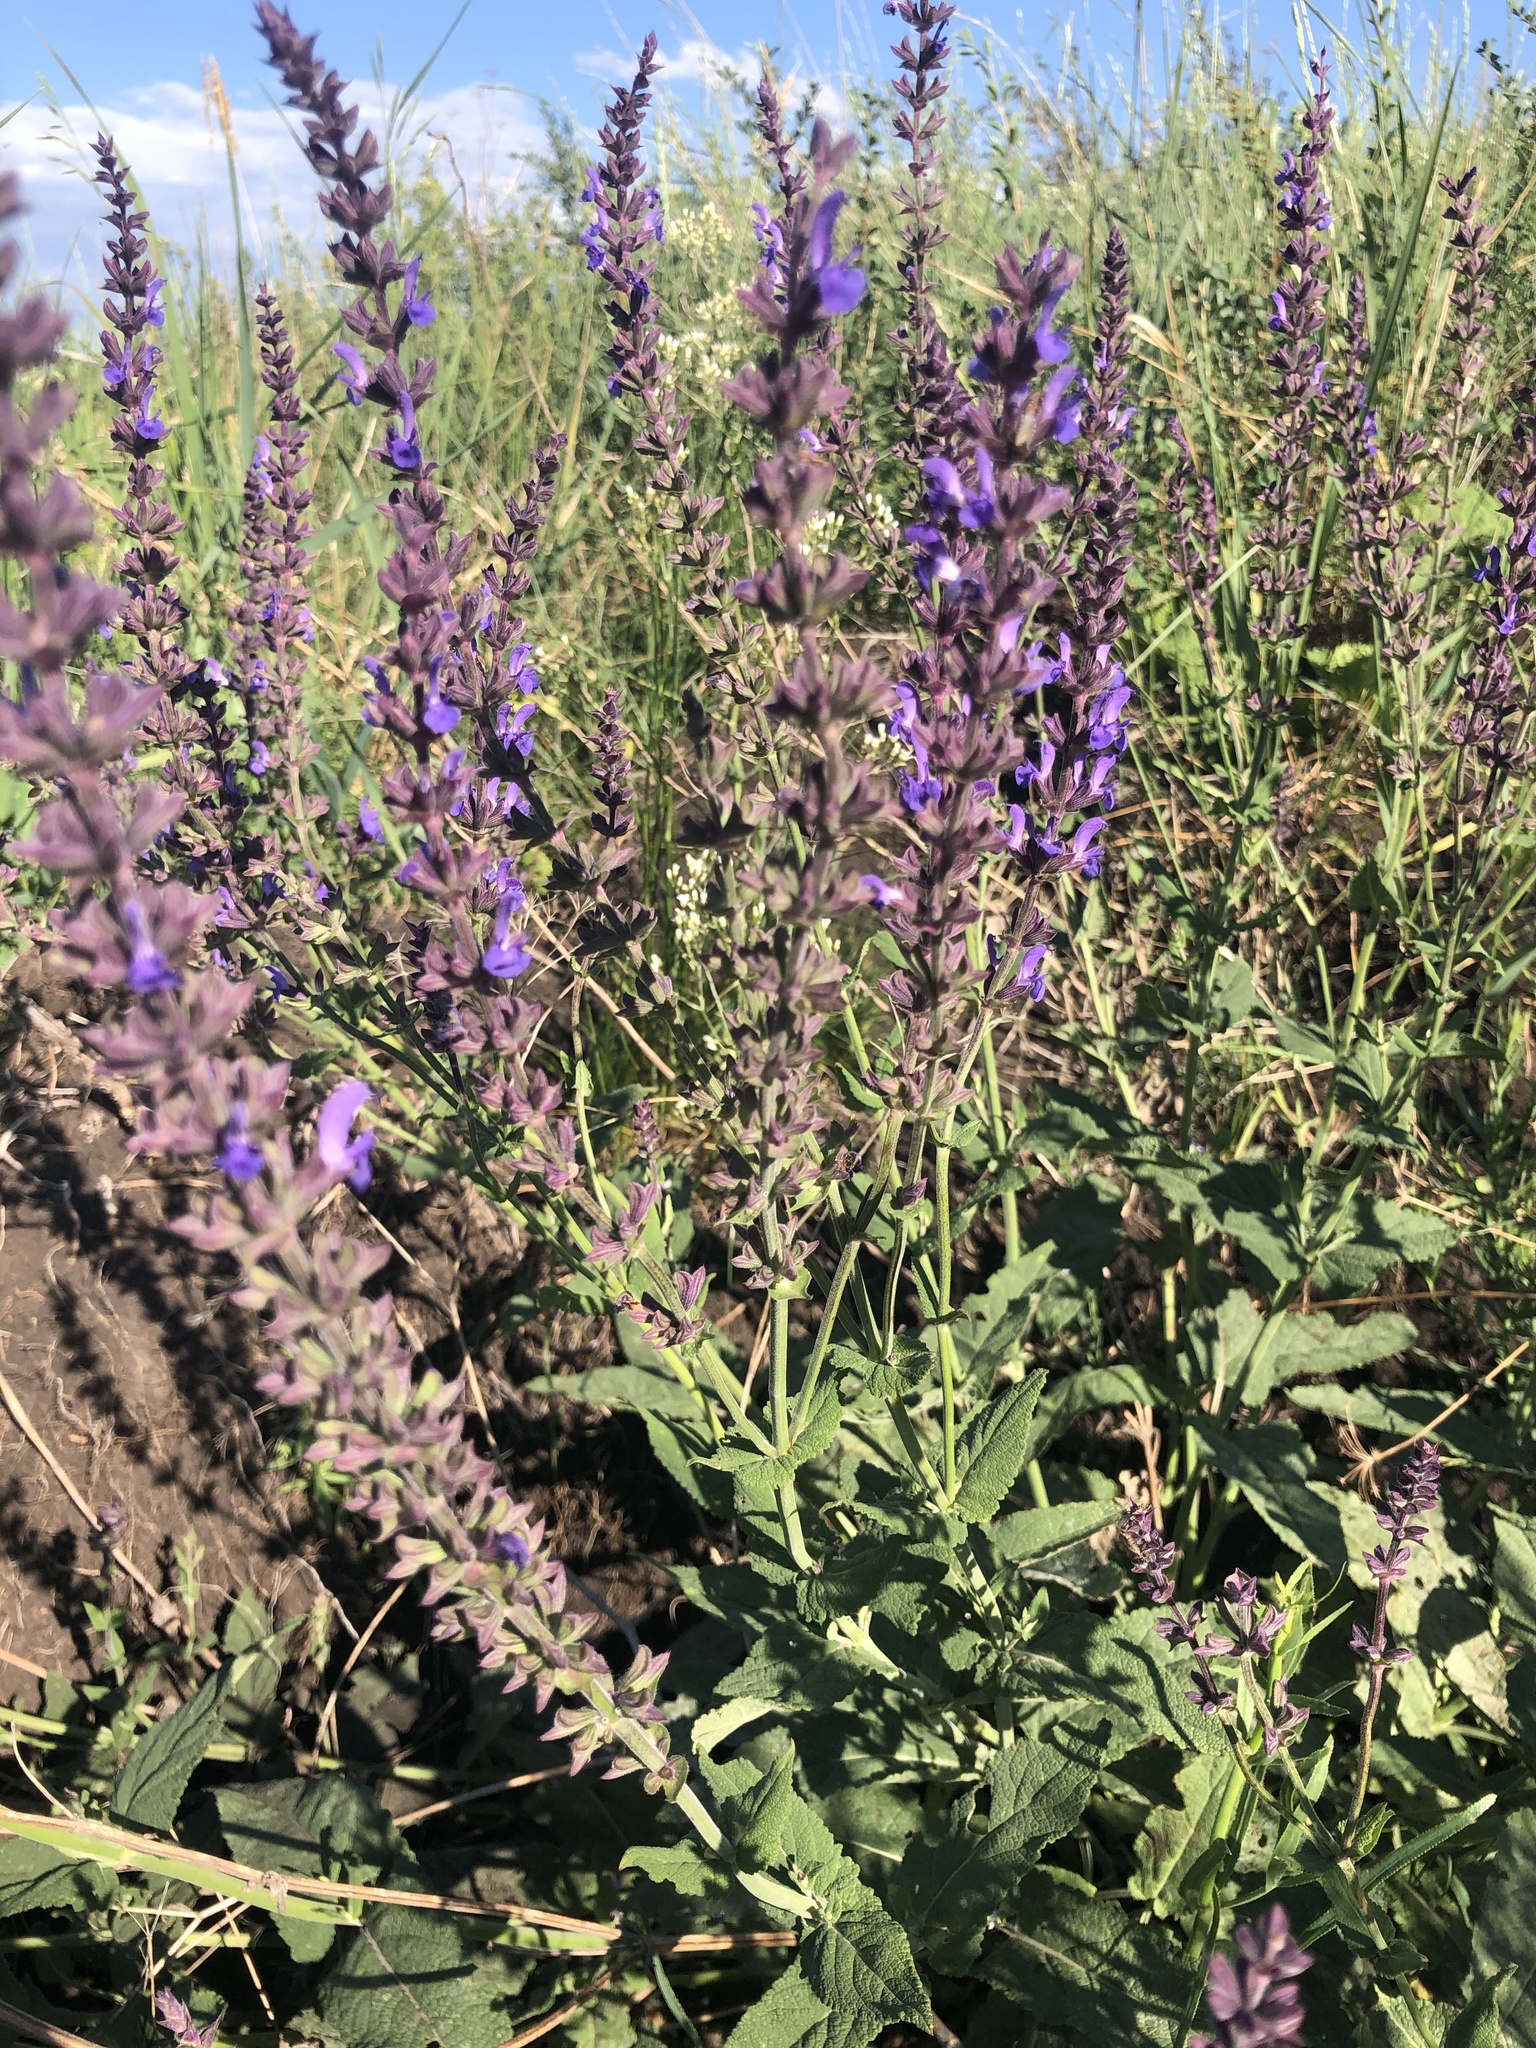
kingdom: Plantae
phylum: Tracheophyta
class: Magnoliopsida
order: Lamiales
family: Lamiaceae
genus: Salvia
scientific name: Salvia nemorosa
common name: Balkan clary
